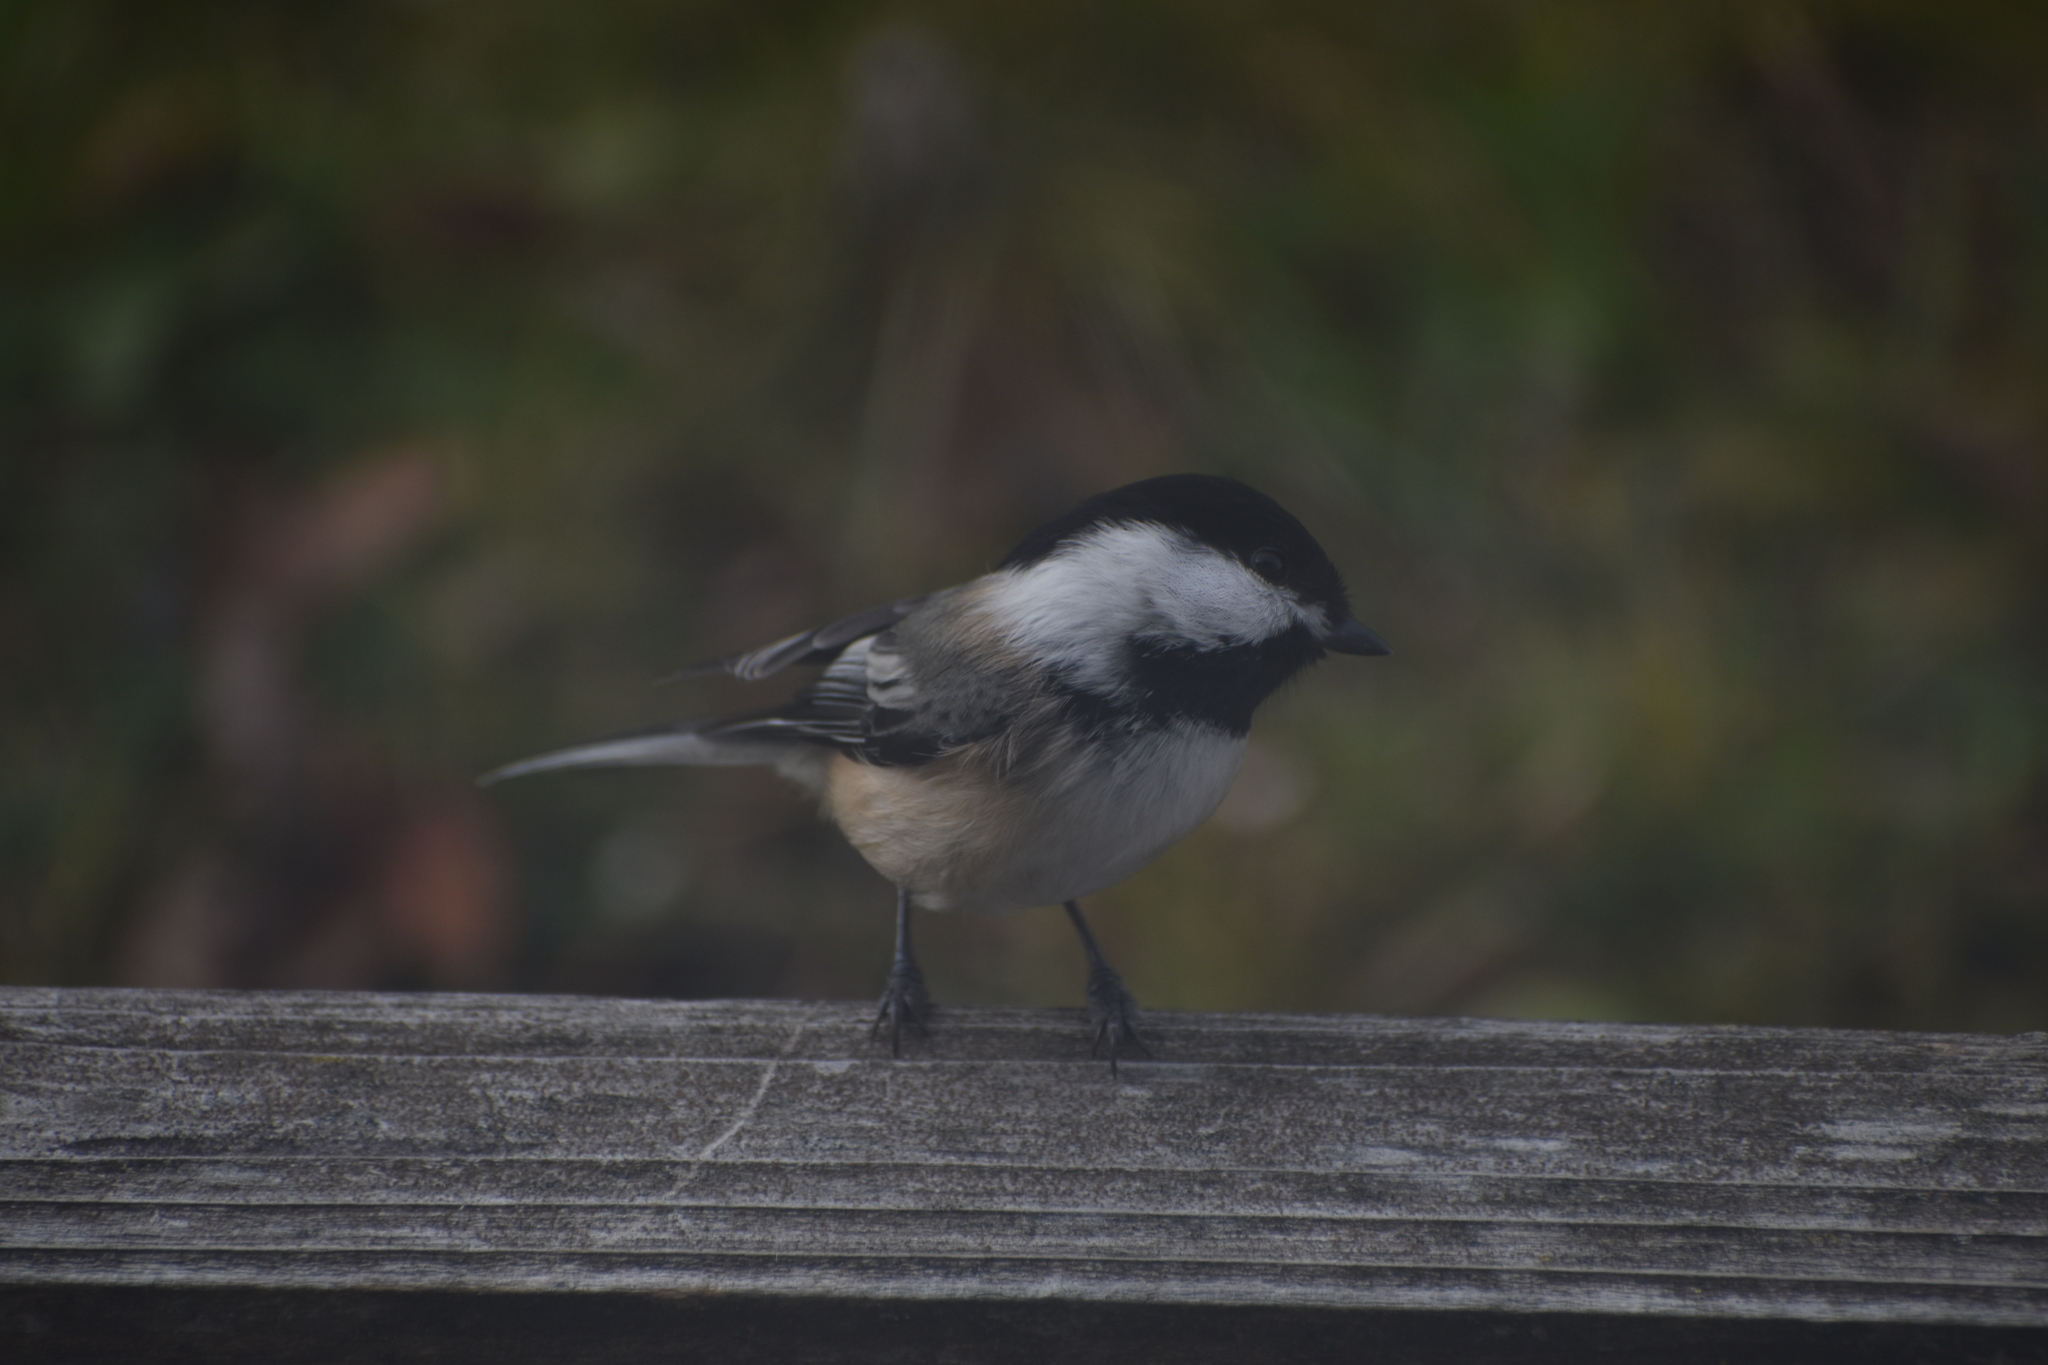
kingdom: Animalia
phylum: Chordata
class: Aves
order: Passeriformes
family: Paridae
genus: Poecile
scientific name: Poecile atricapillus
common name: Black-capped chickadee
